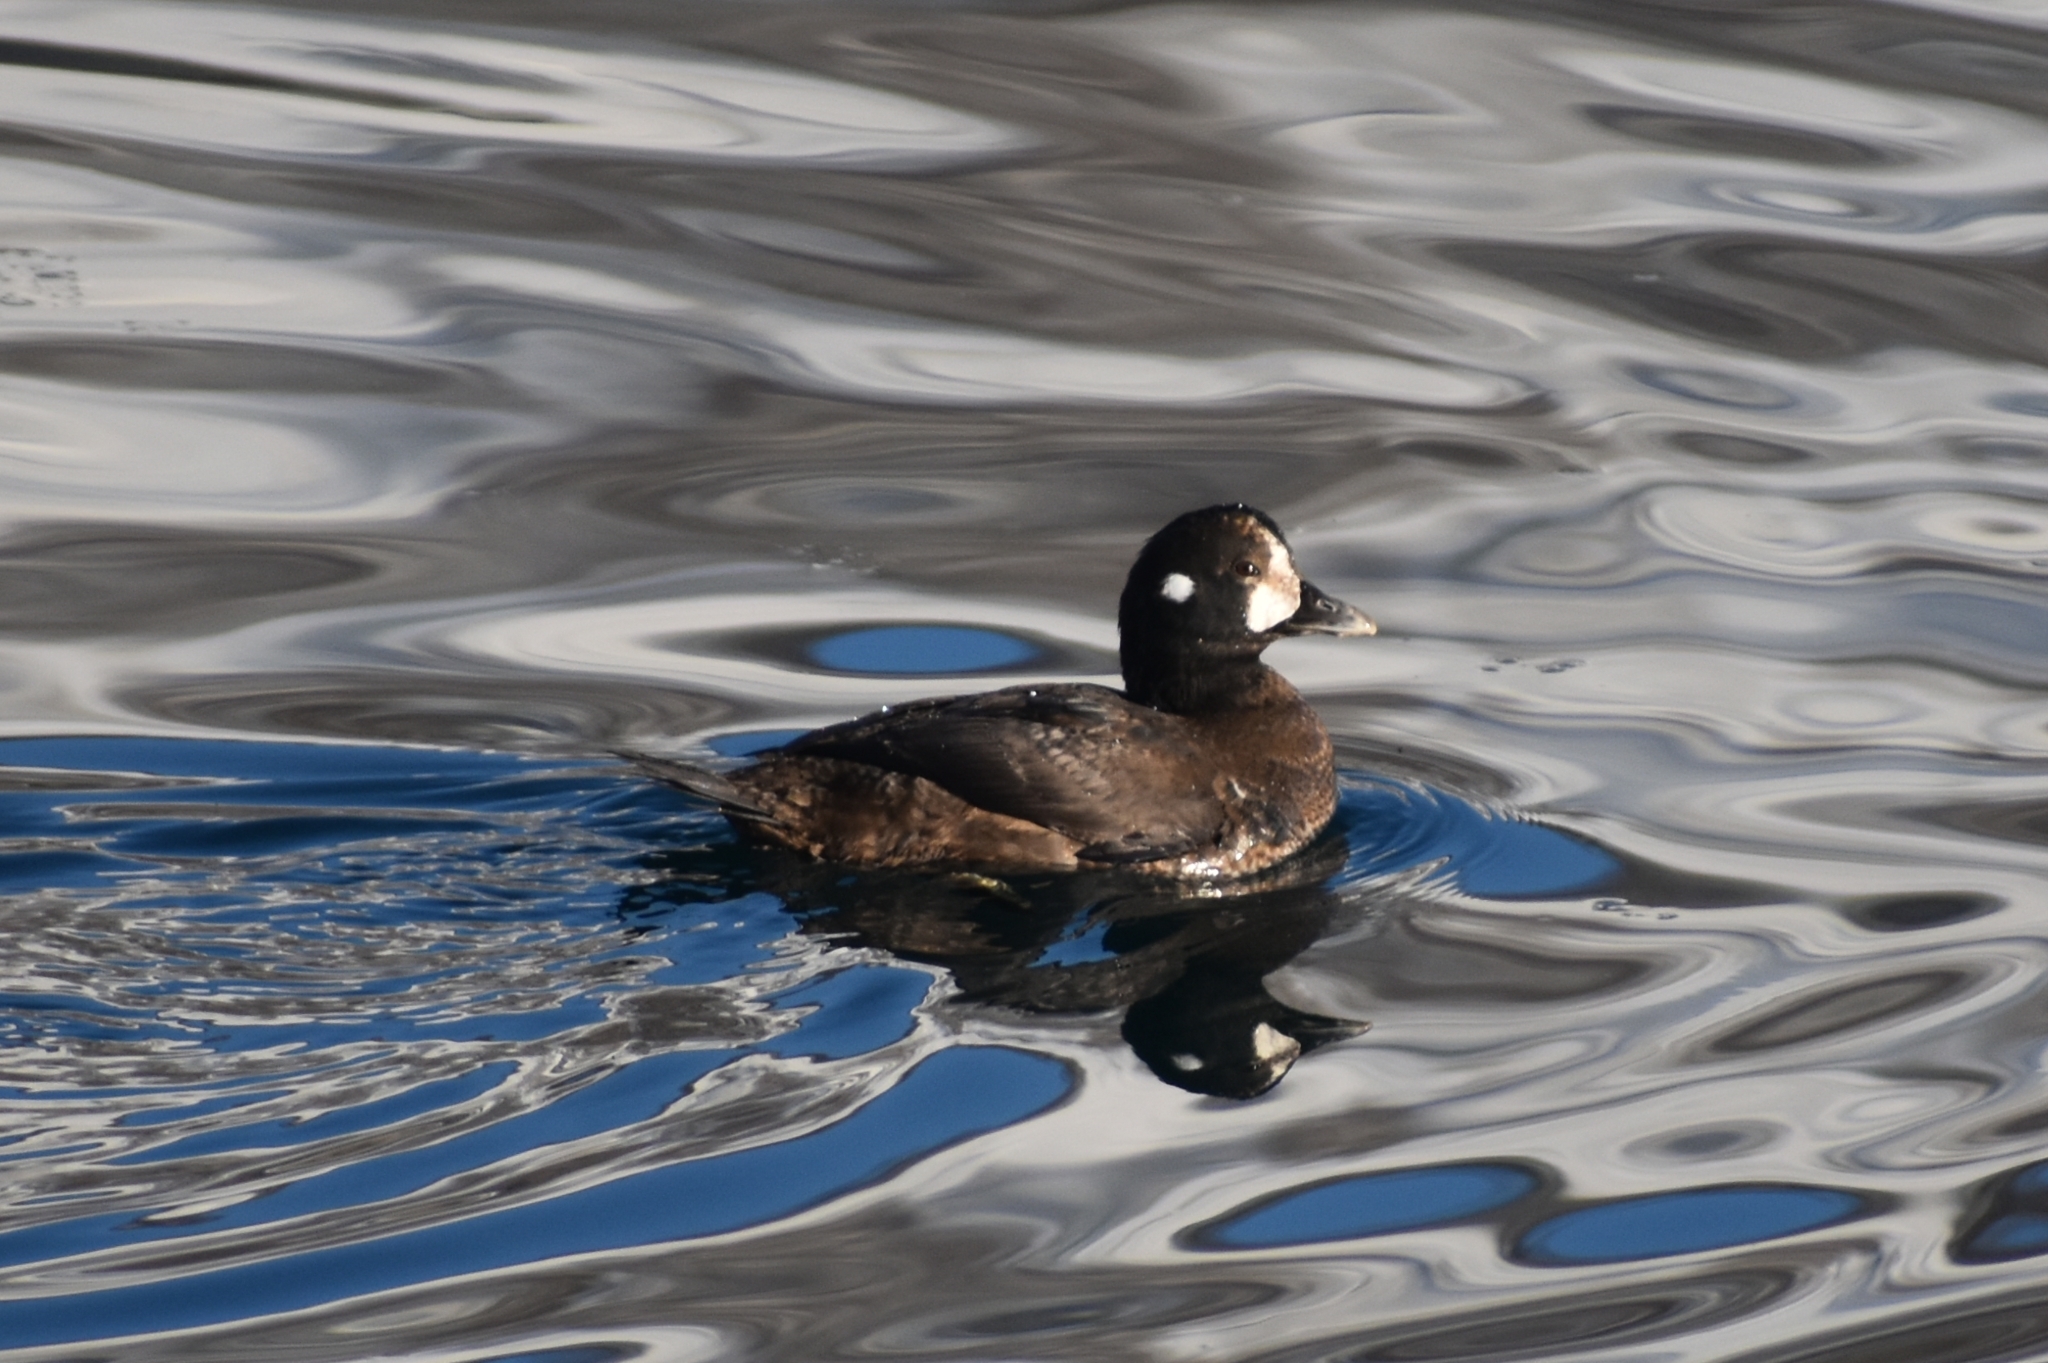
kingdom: Animalia
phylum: Chordata
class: Aves
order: Anseriformes
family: Anatidae
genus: Histrionicus
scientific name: Histrionicus histrionicus
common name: Harlequin duck
